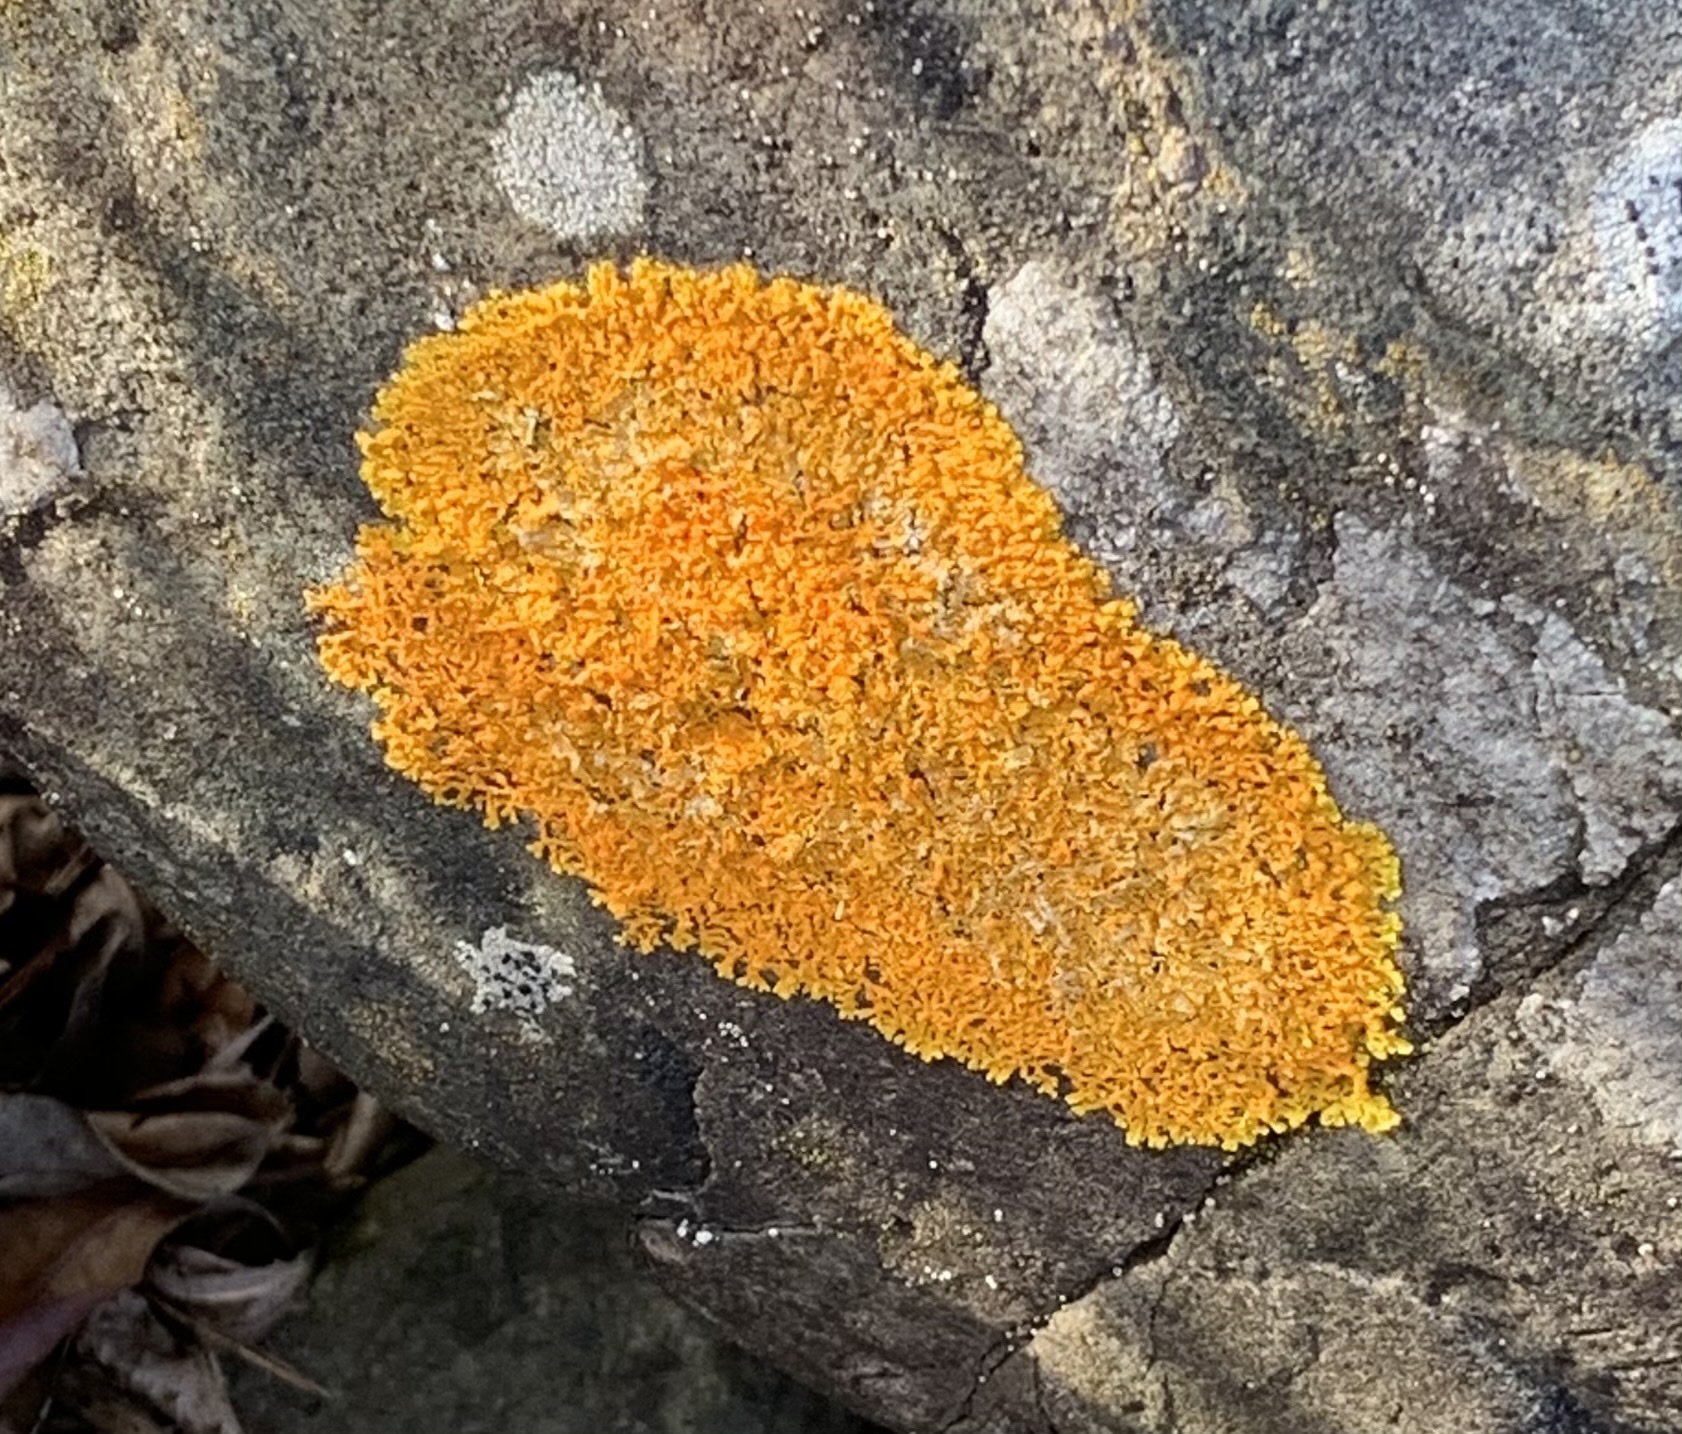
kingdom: Fungi
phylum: Ascomycota
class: Lecanoromycetes
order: Teloschistales
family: Teloschistaceae
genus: Xanthoria
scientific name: Xanthoria elegans
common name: Elegant sunburst lichen
